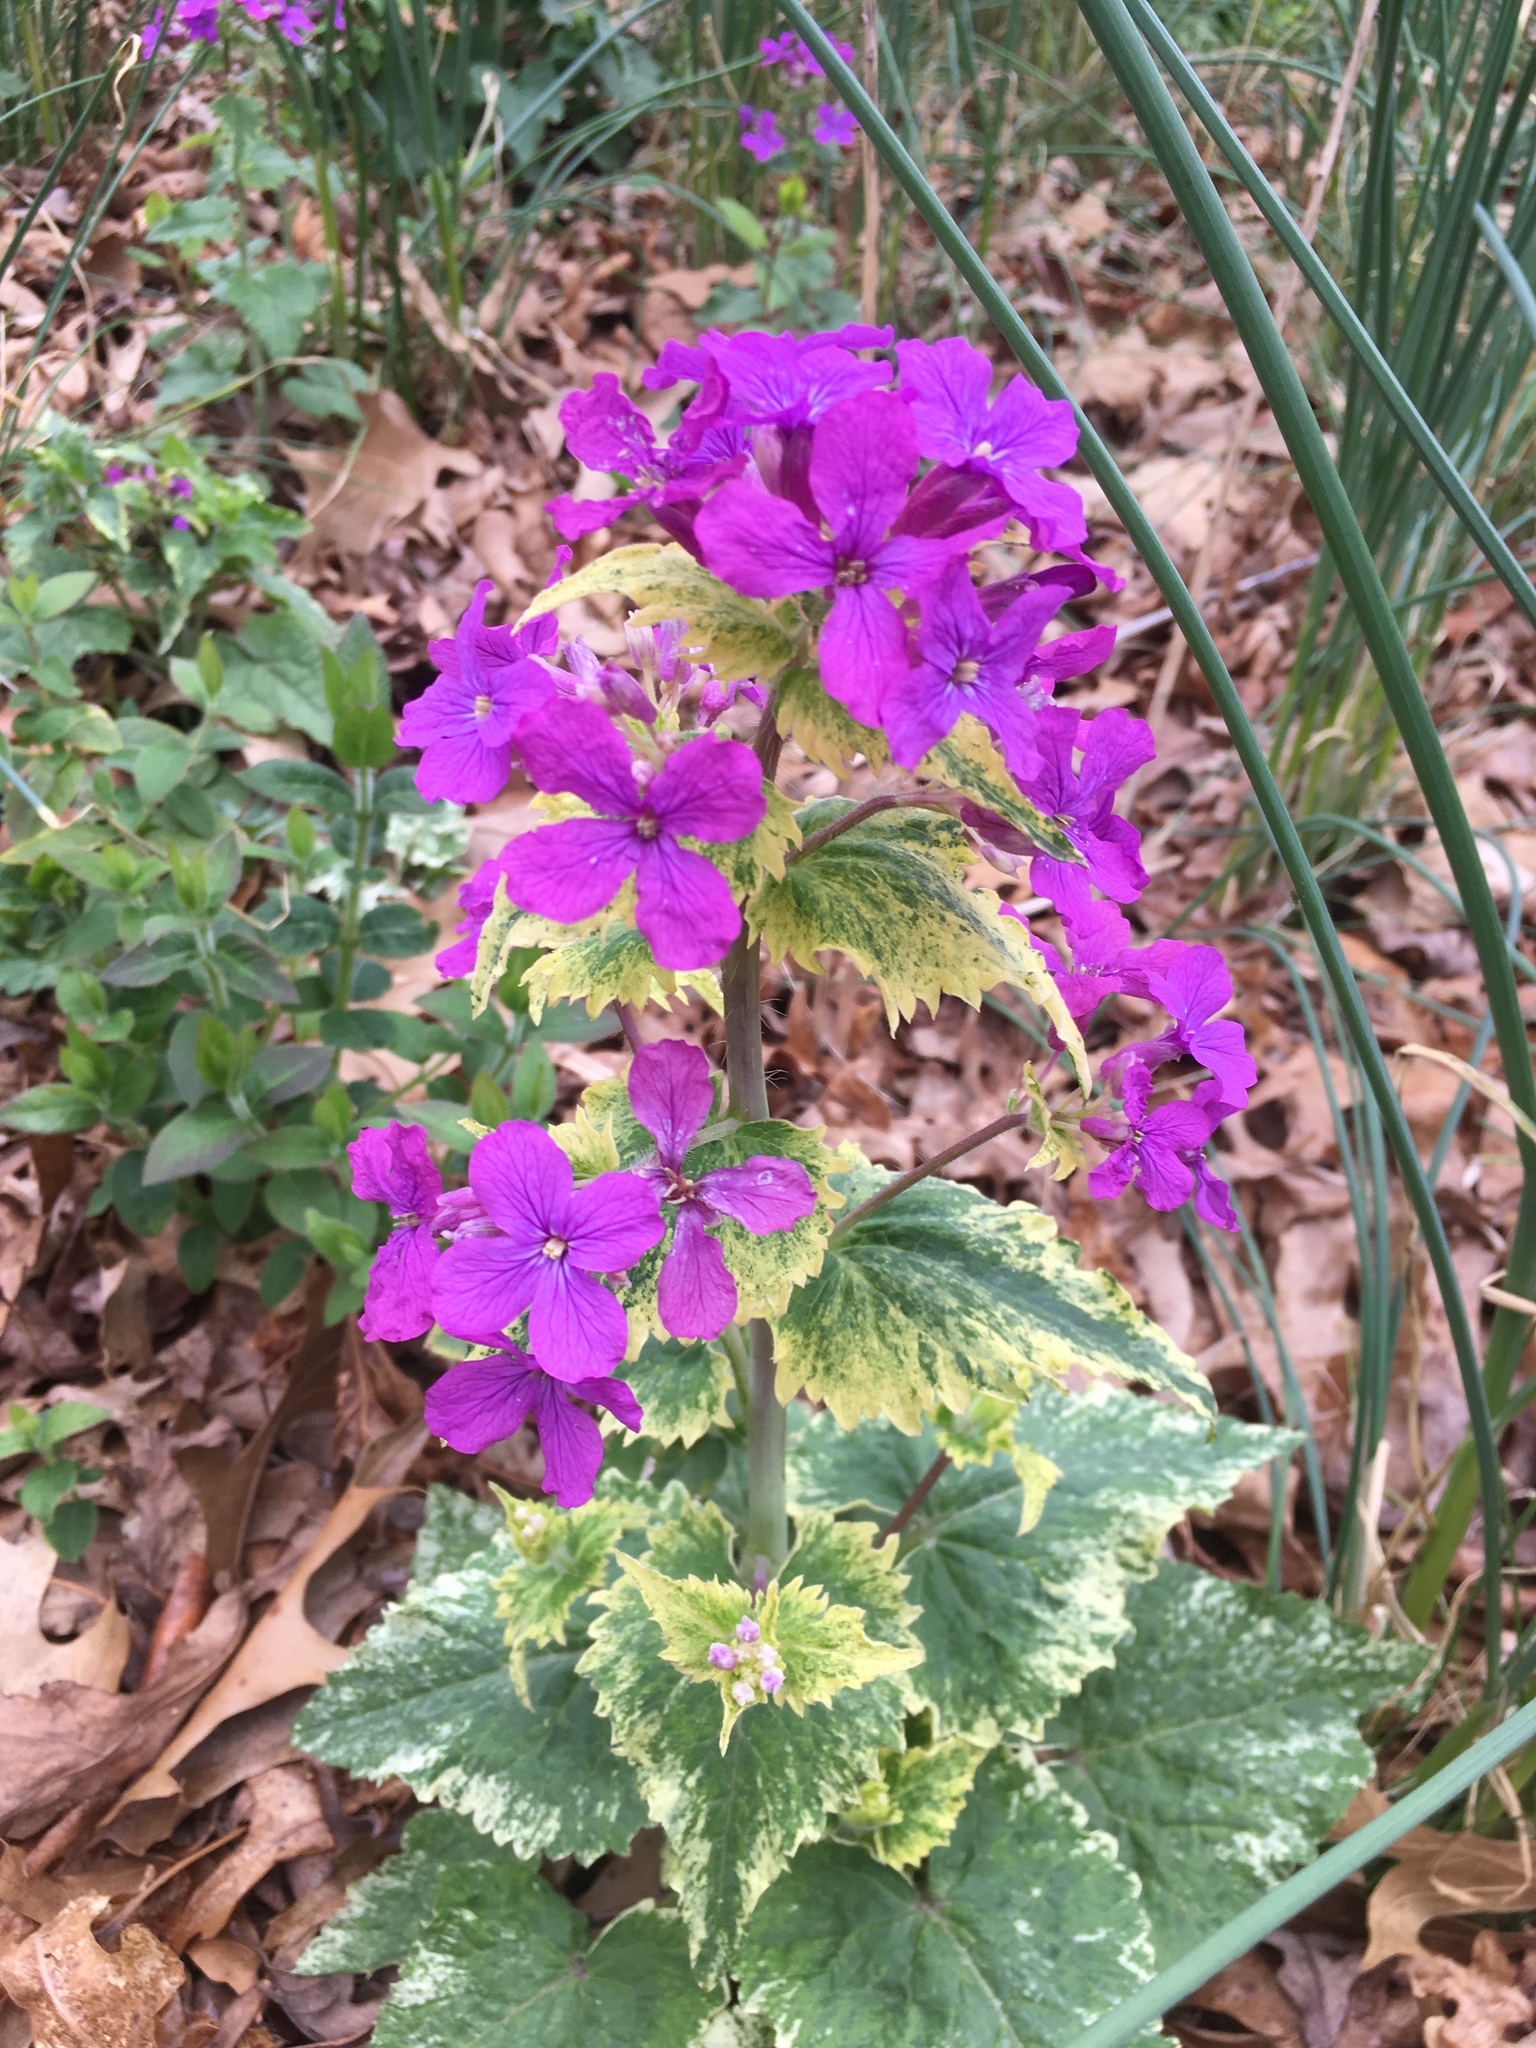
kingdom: Plantae
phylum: Tracheophyta
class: Magnoliopsida
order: Brassicales
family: Brassicaceae
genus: Lunaria
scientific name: Lunaria annua
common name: Honesty
